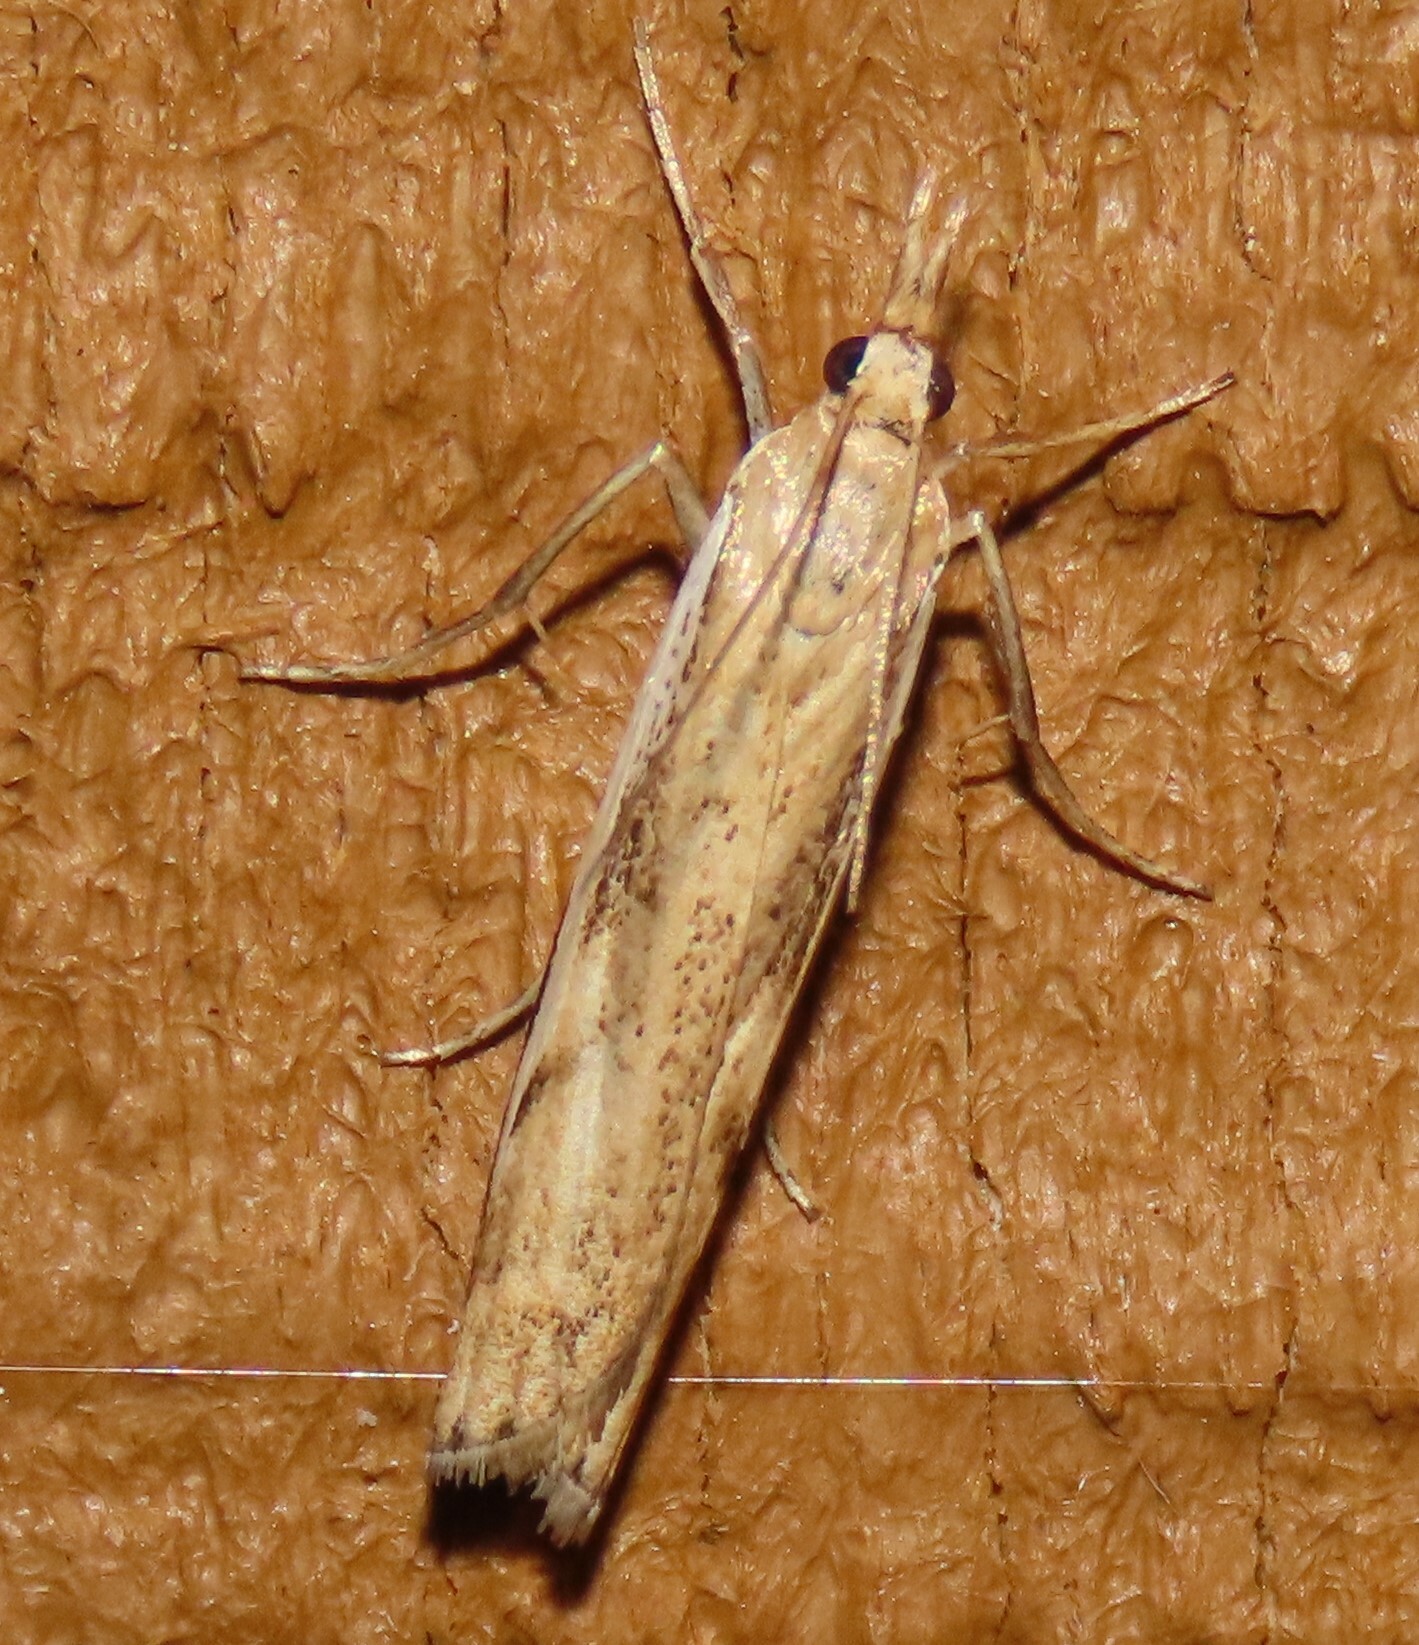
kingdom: Animalia
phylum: Arthropoda
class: Insecta
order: Lepidoptera
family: Crambidae
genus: Orocrambus
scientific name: Orocrambus flexuosellus
